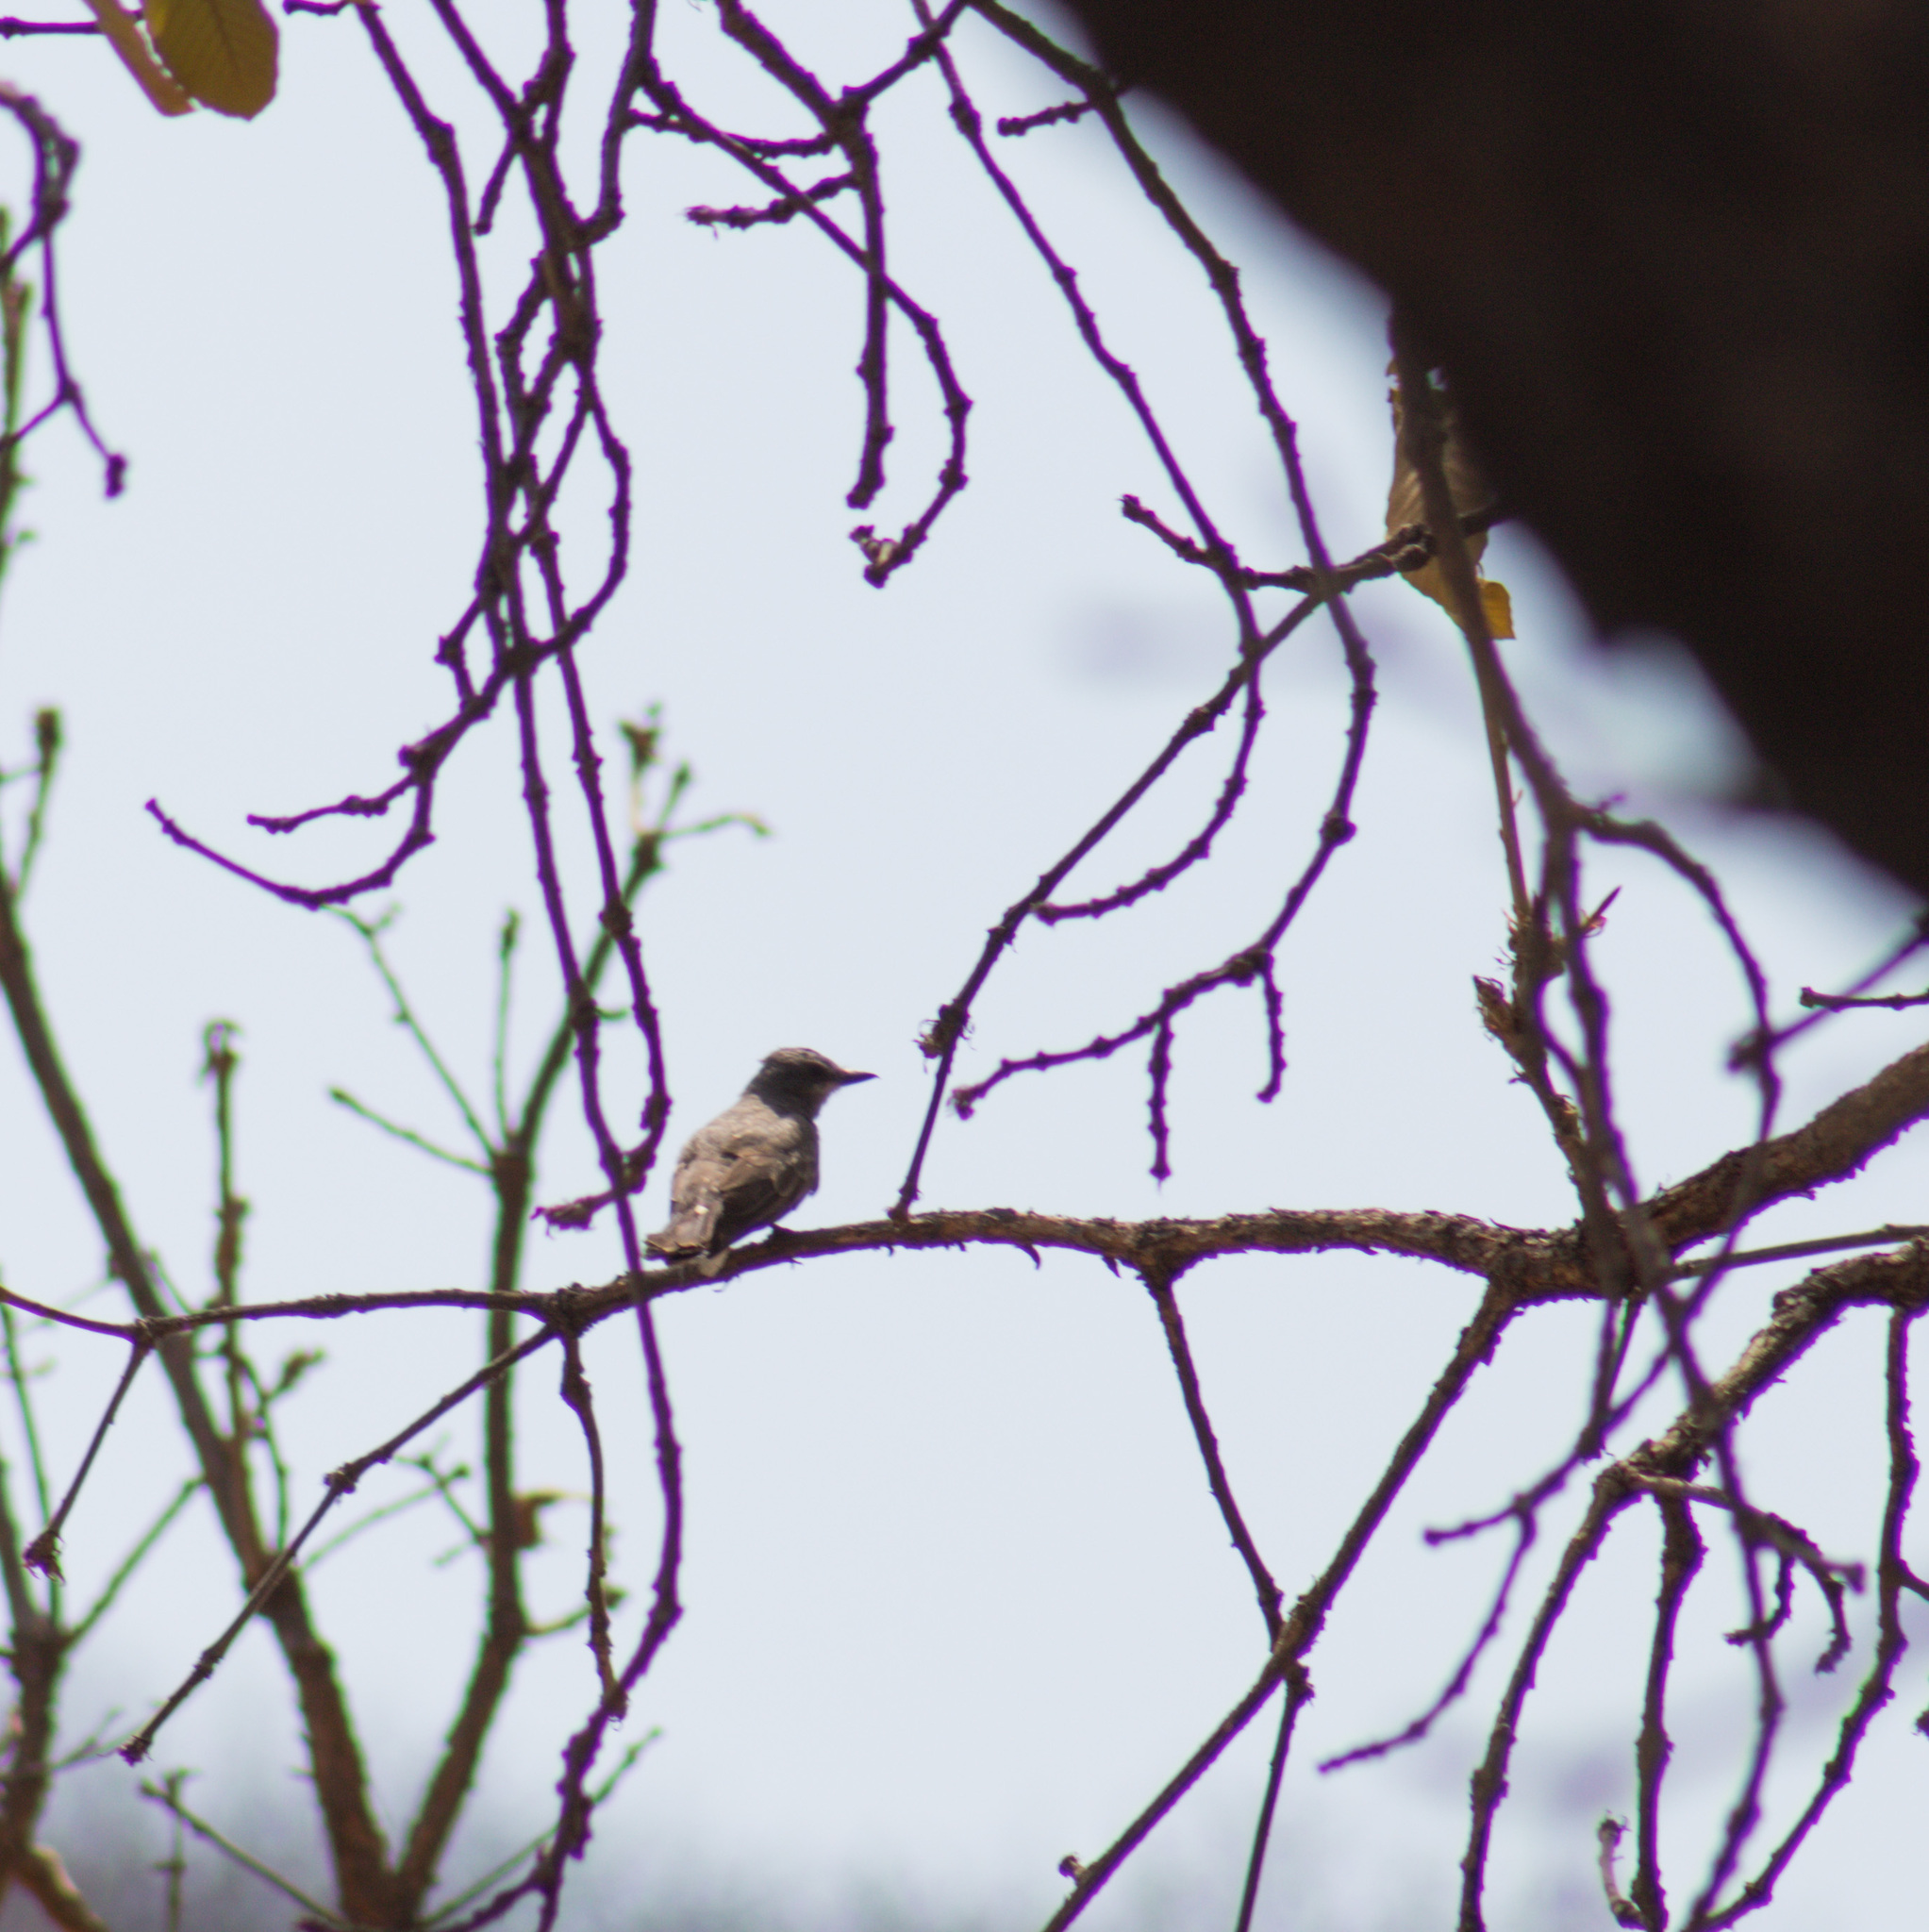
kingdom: Animalia
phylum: Chordata
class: Aves
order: Passeriformes
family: Tyrannidae
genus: Tyrannus
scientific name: Tyrannus vociferans
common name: Cassin's kingbird
